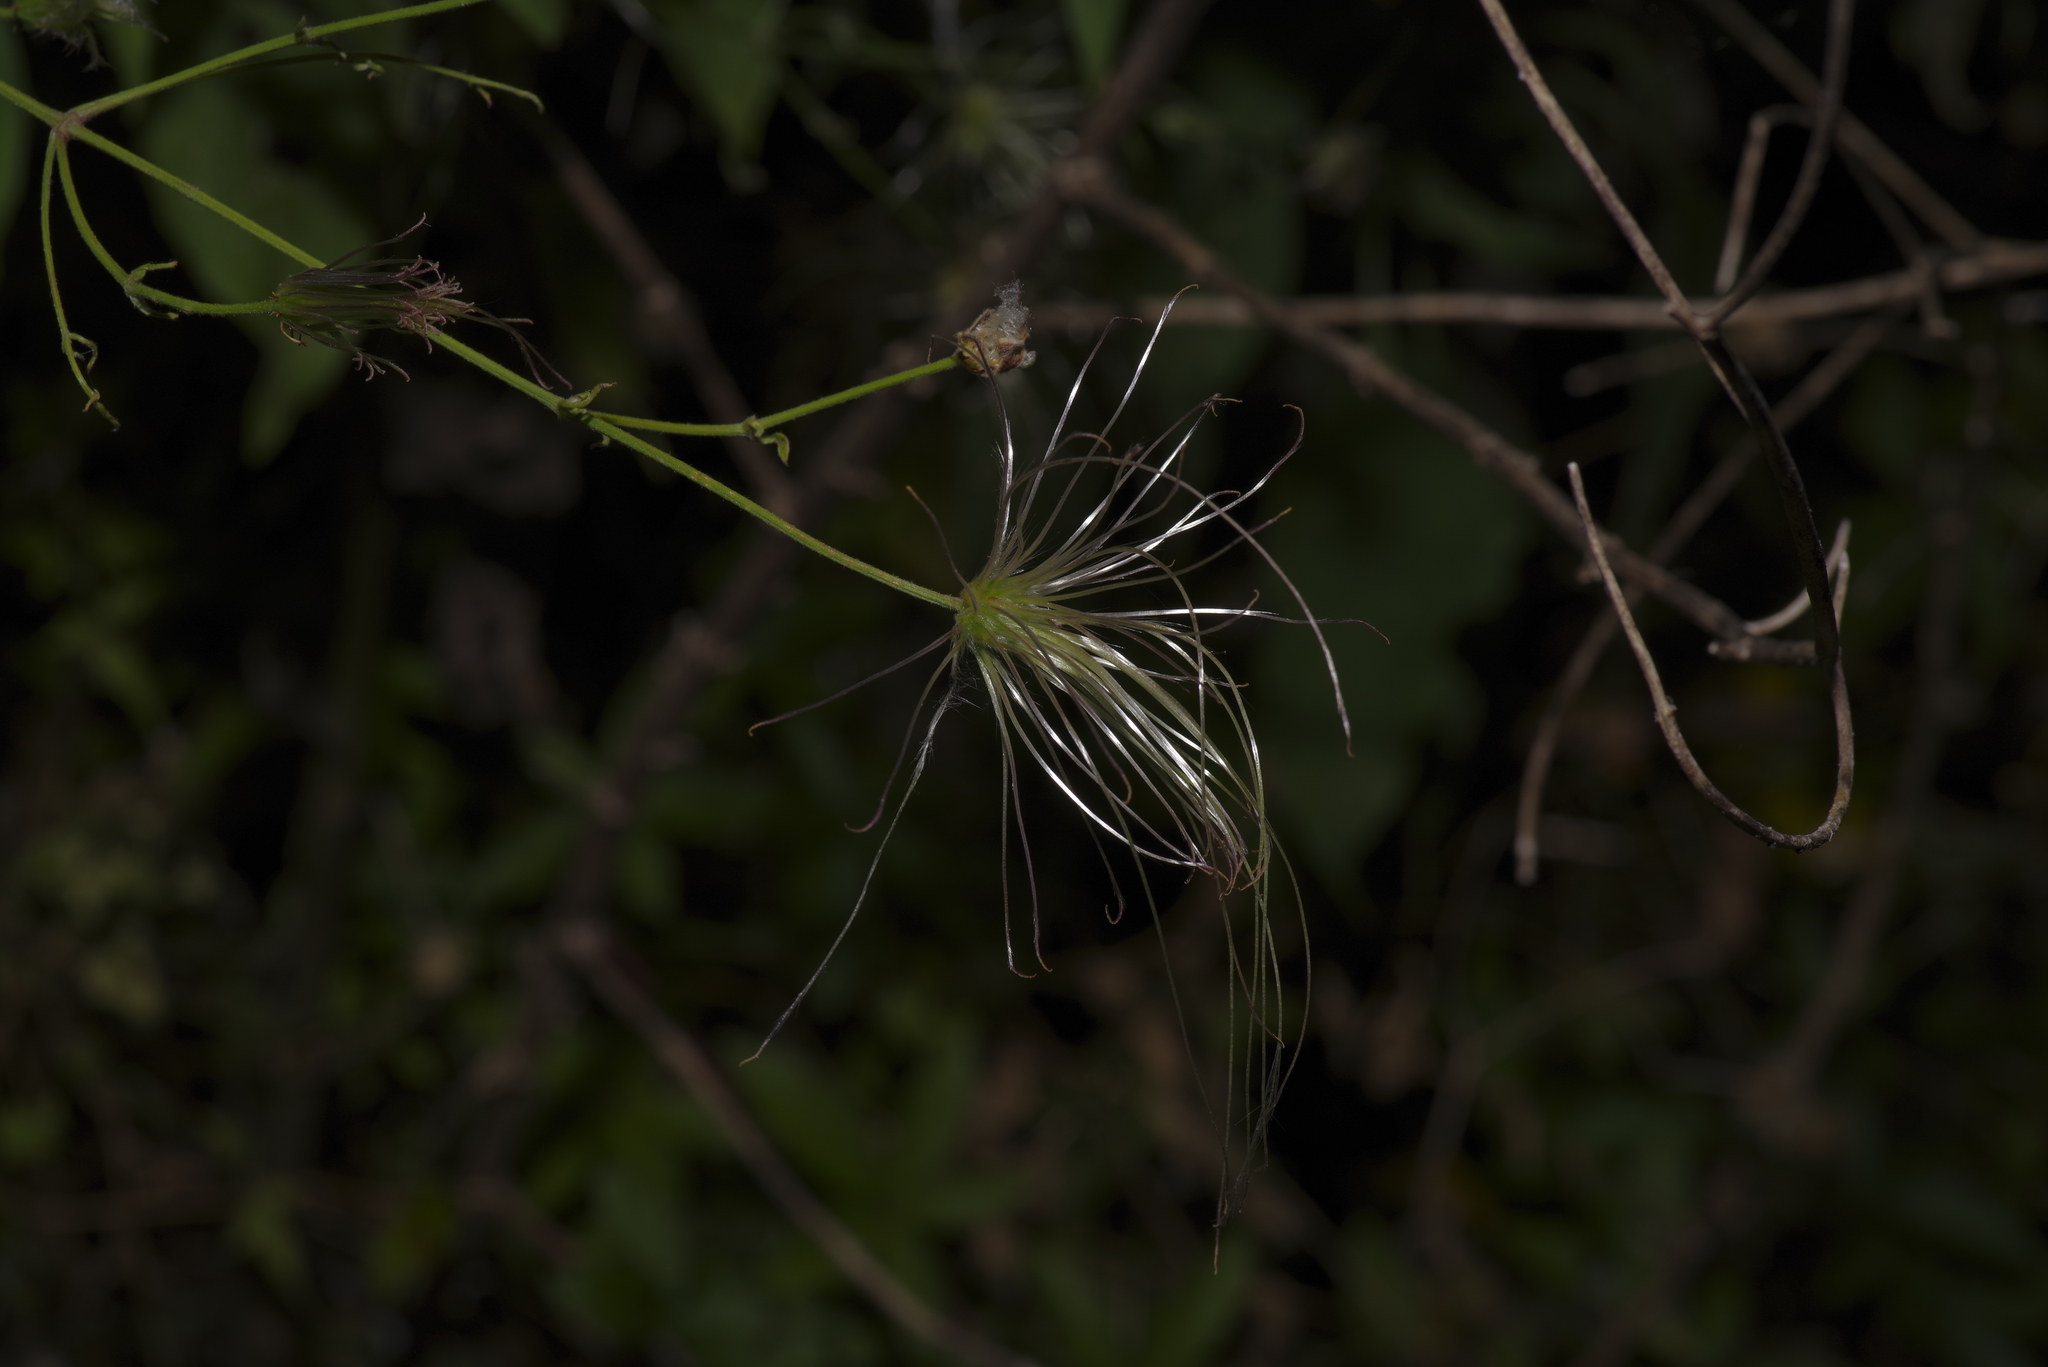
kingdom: Plantae
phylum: Tracheophyta
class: Magnoliopsida
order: Ranunculales
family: Ranunculaceae
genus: Clematis
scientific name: Clematis drummondii
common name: Texas virgin's bower
